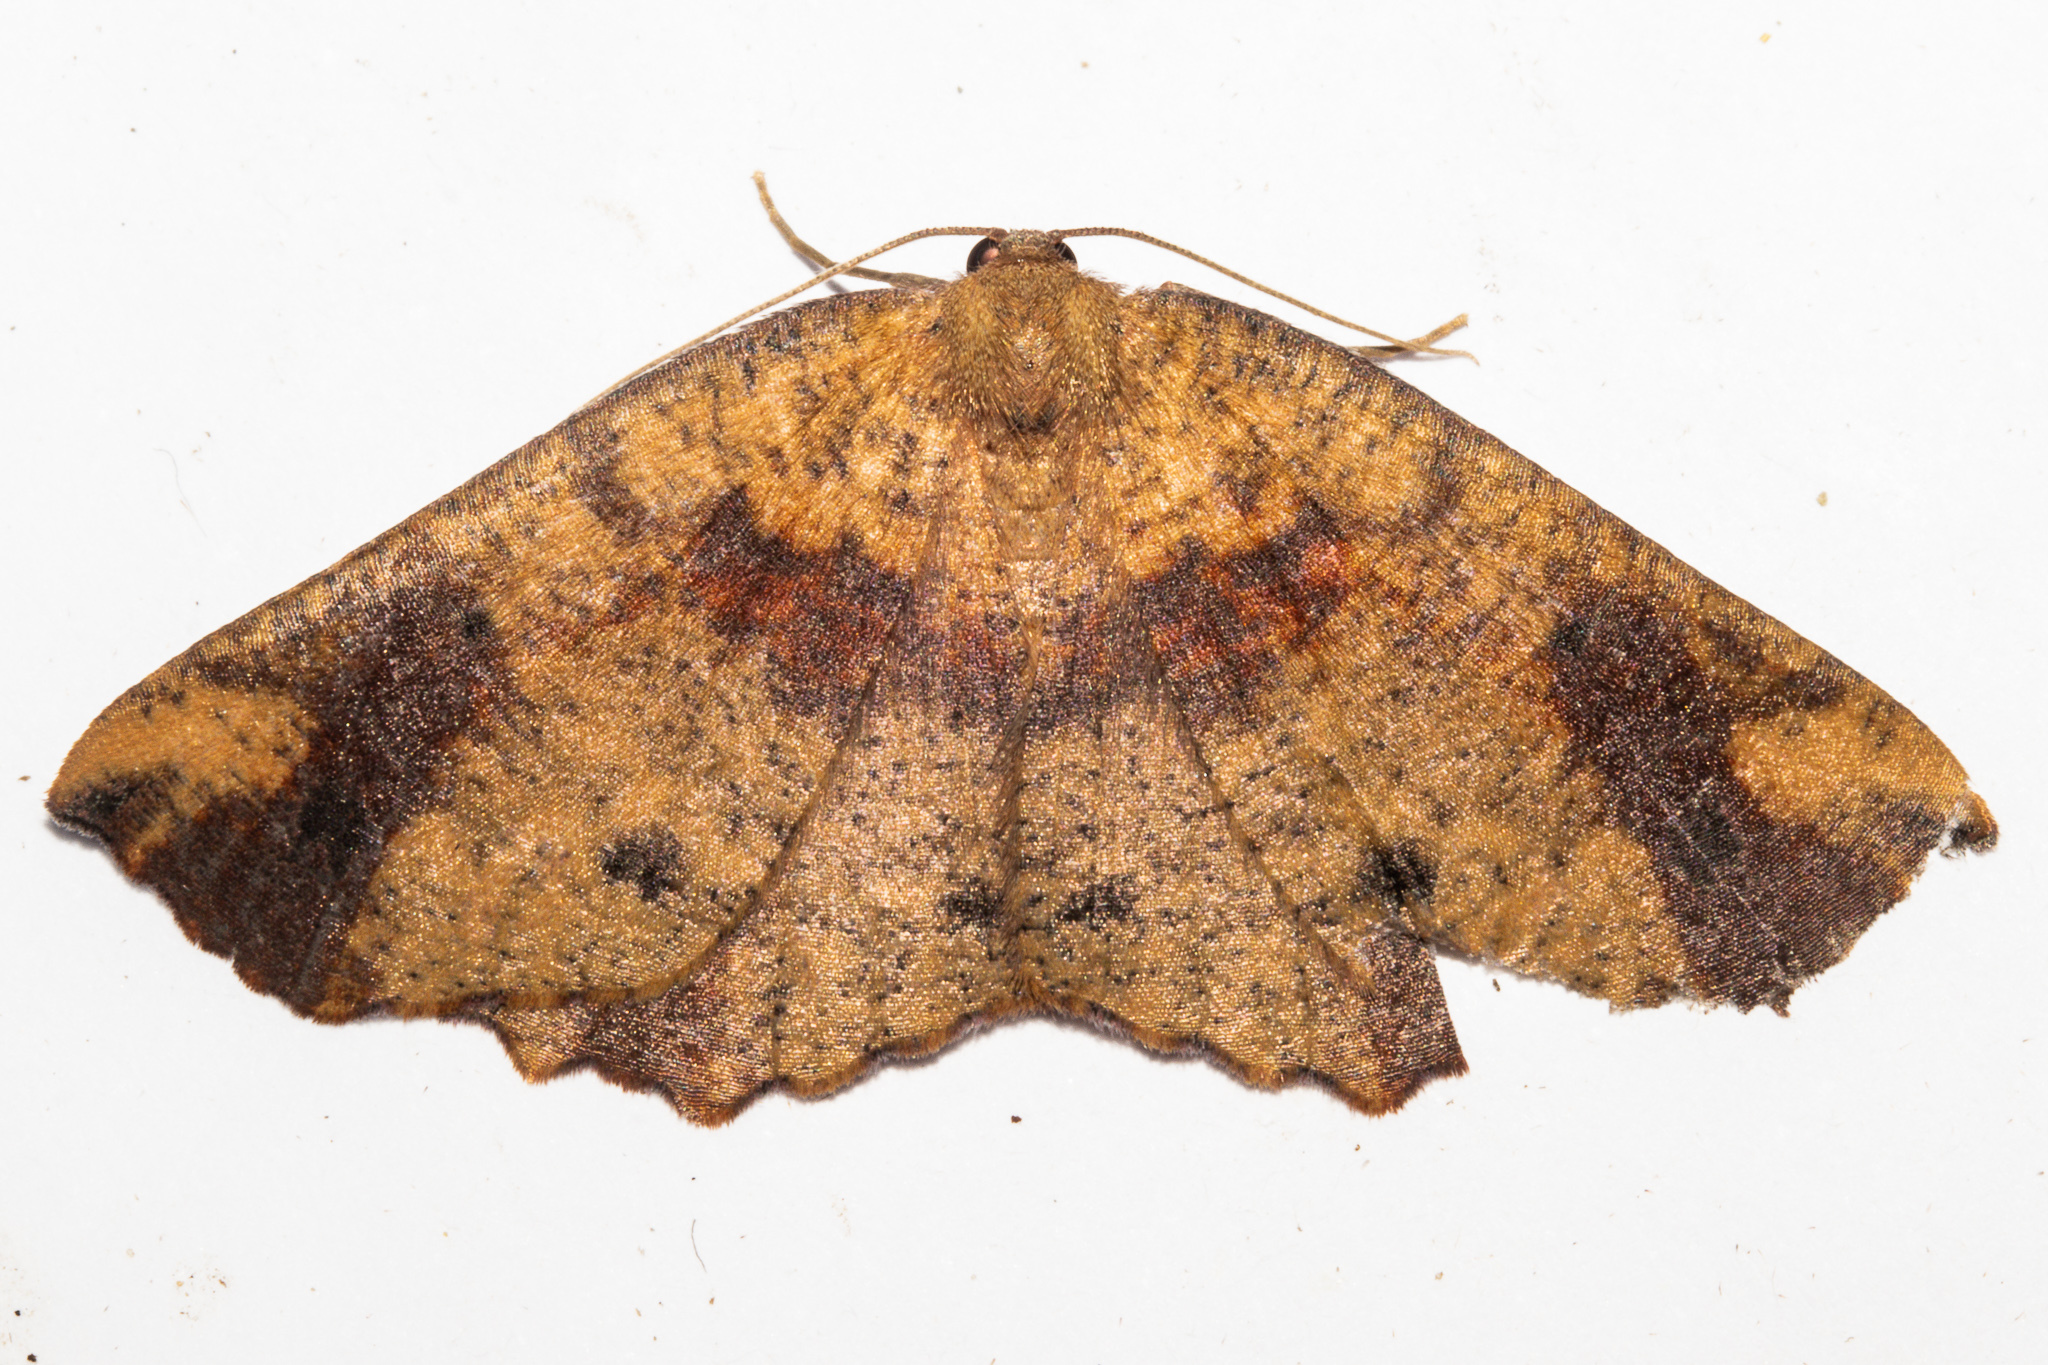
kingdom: Animalia
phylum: Arthropoda
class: Insecta
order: Lepidoptera
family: Geometridae
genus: Xyridacma
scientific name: Xyridacma ustaria
